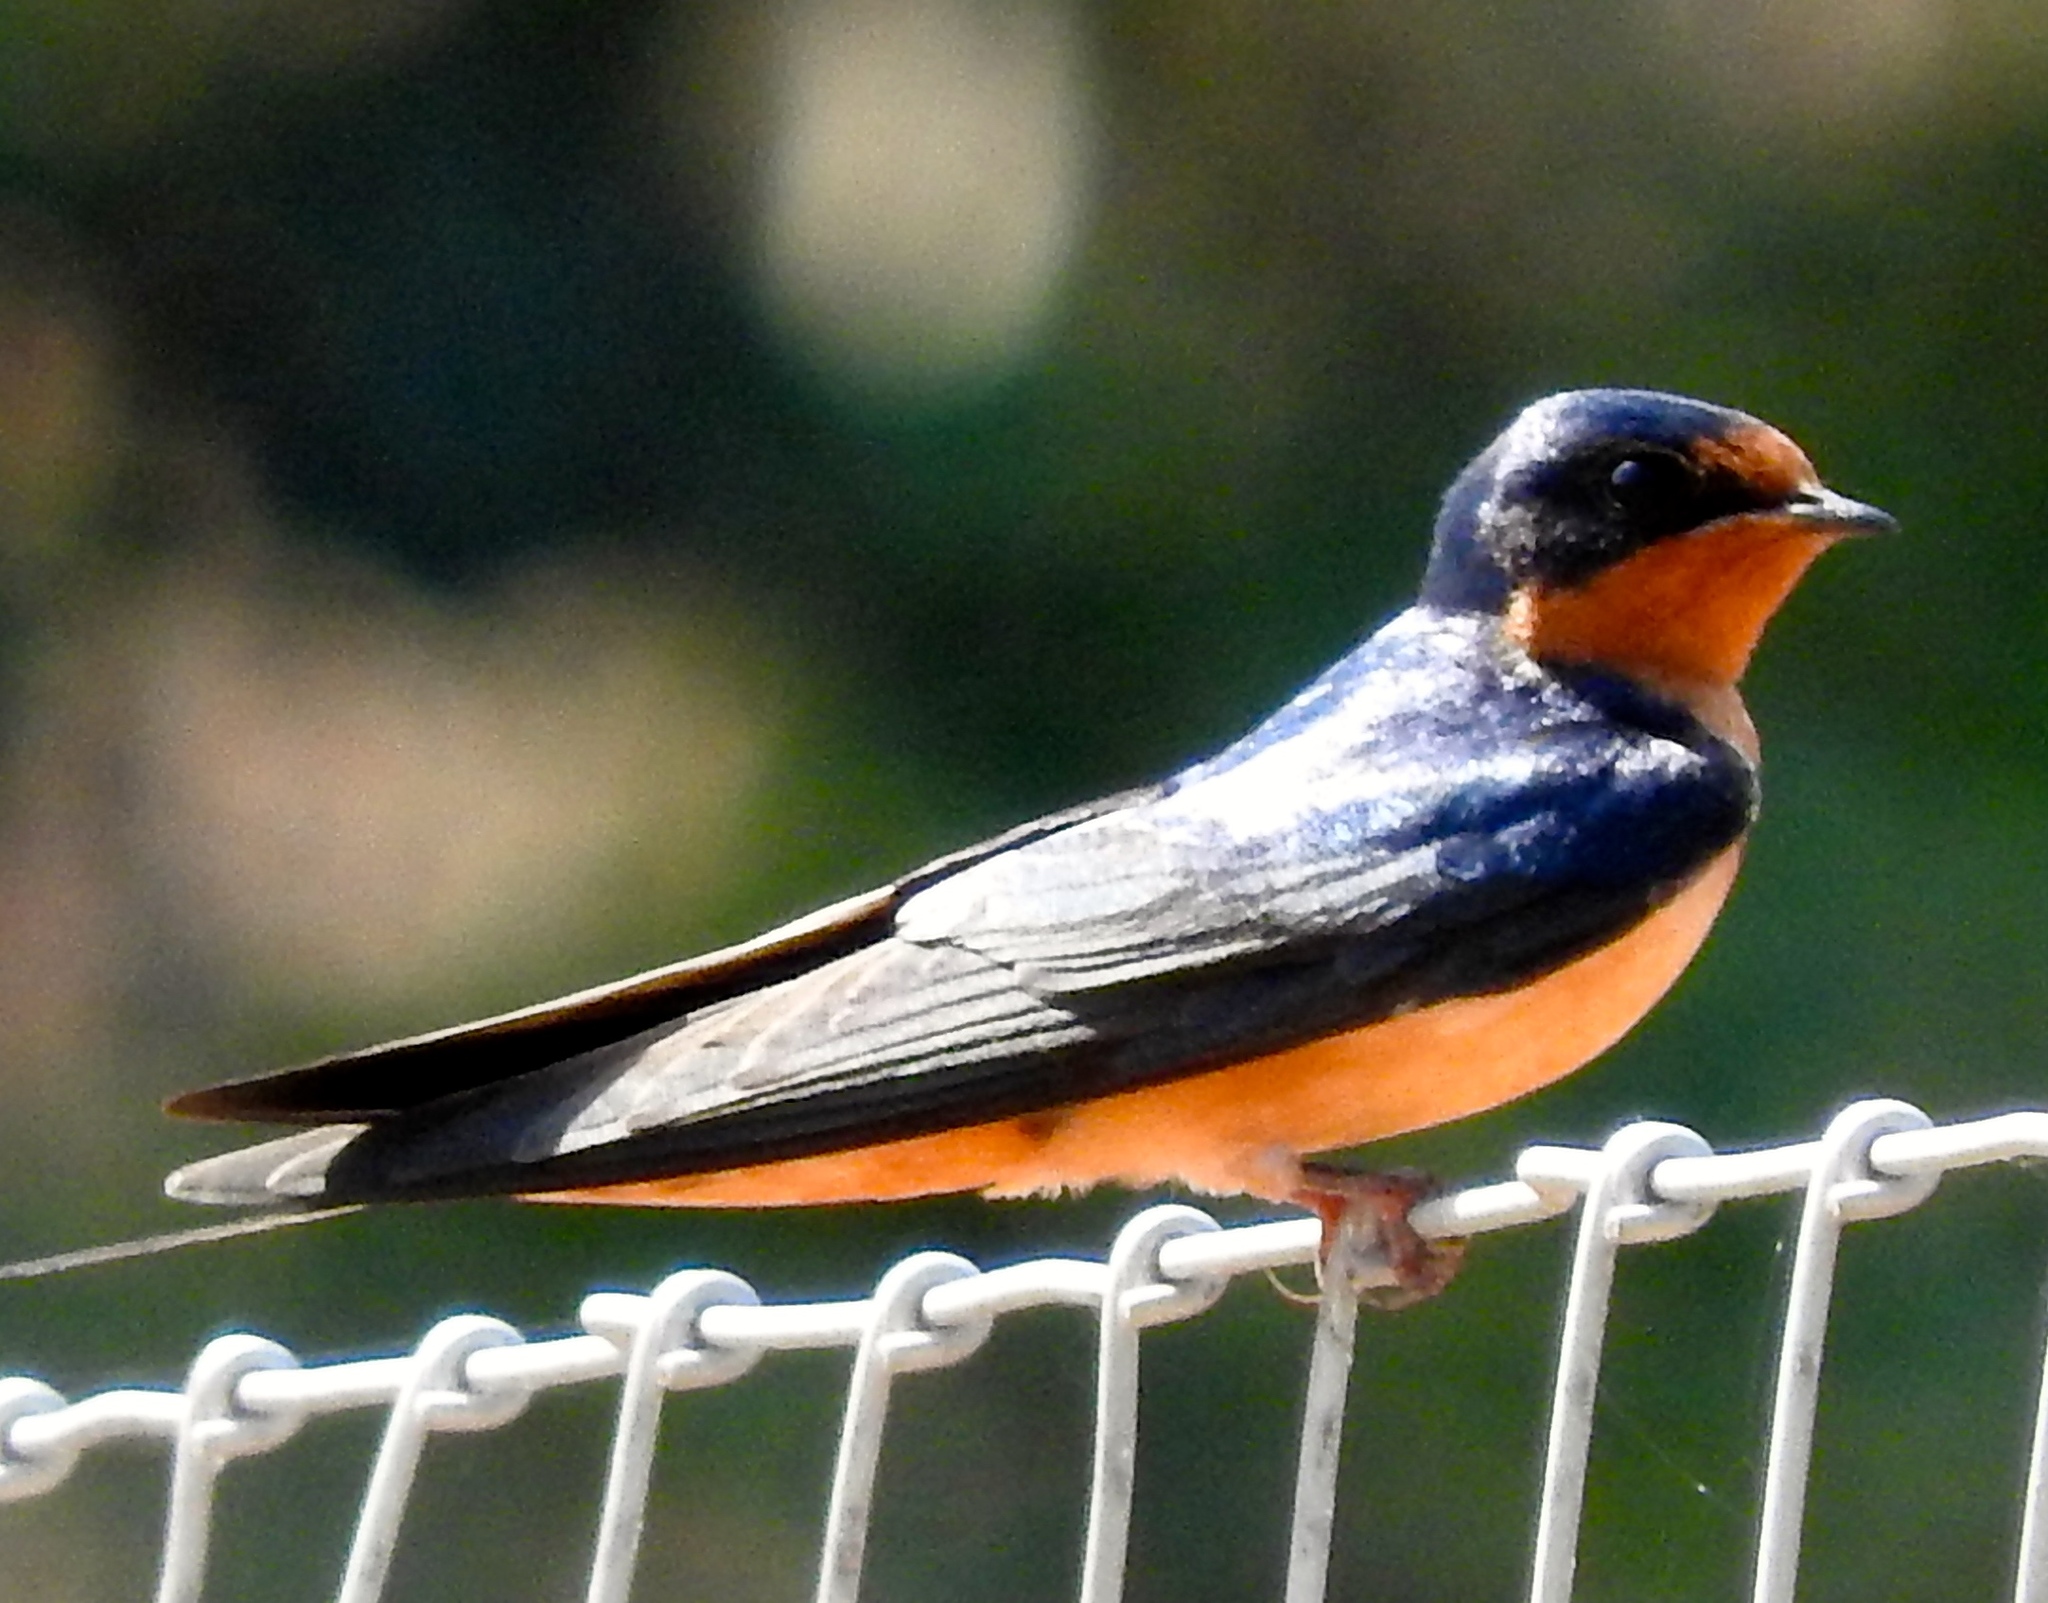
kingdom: Animalia
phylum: Chordata
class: Aves
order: Passeriformes
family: Hirundinidae
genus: Hirundo
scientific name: Hirundo rustica
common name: Barn swallow
